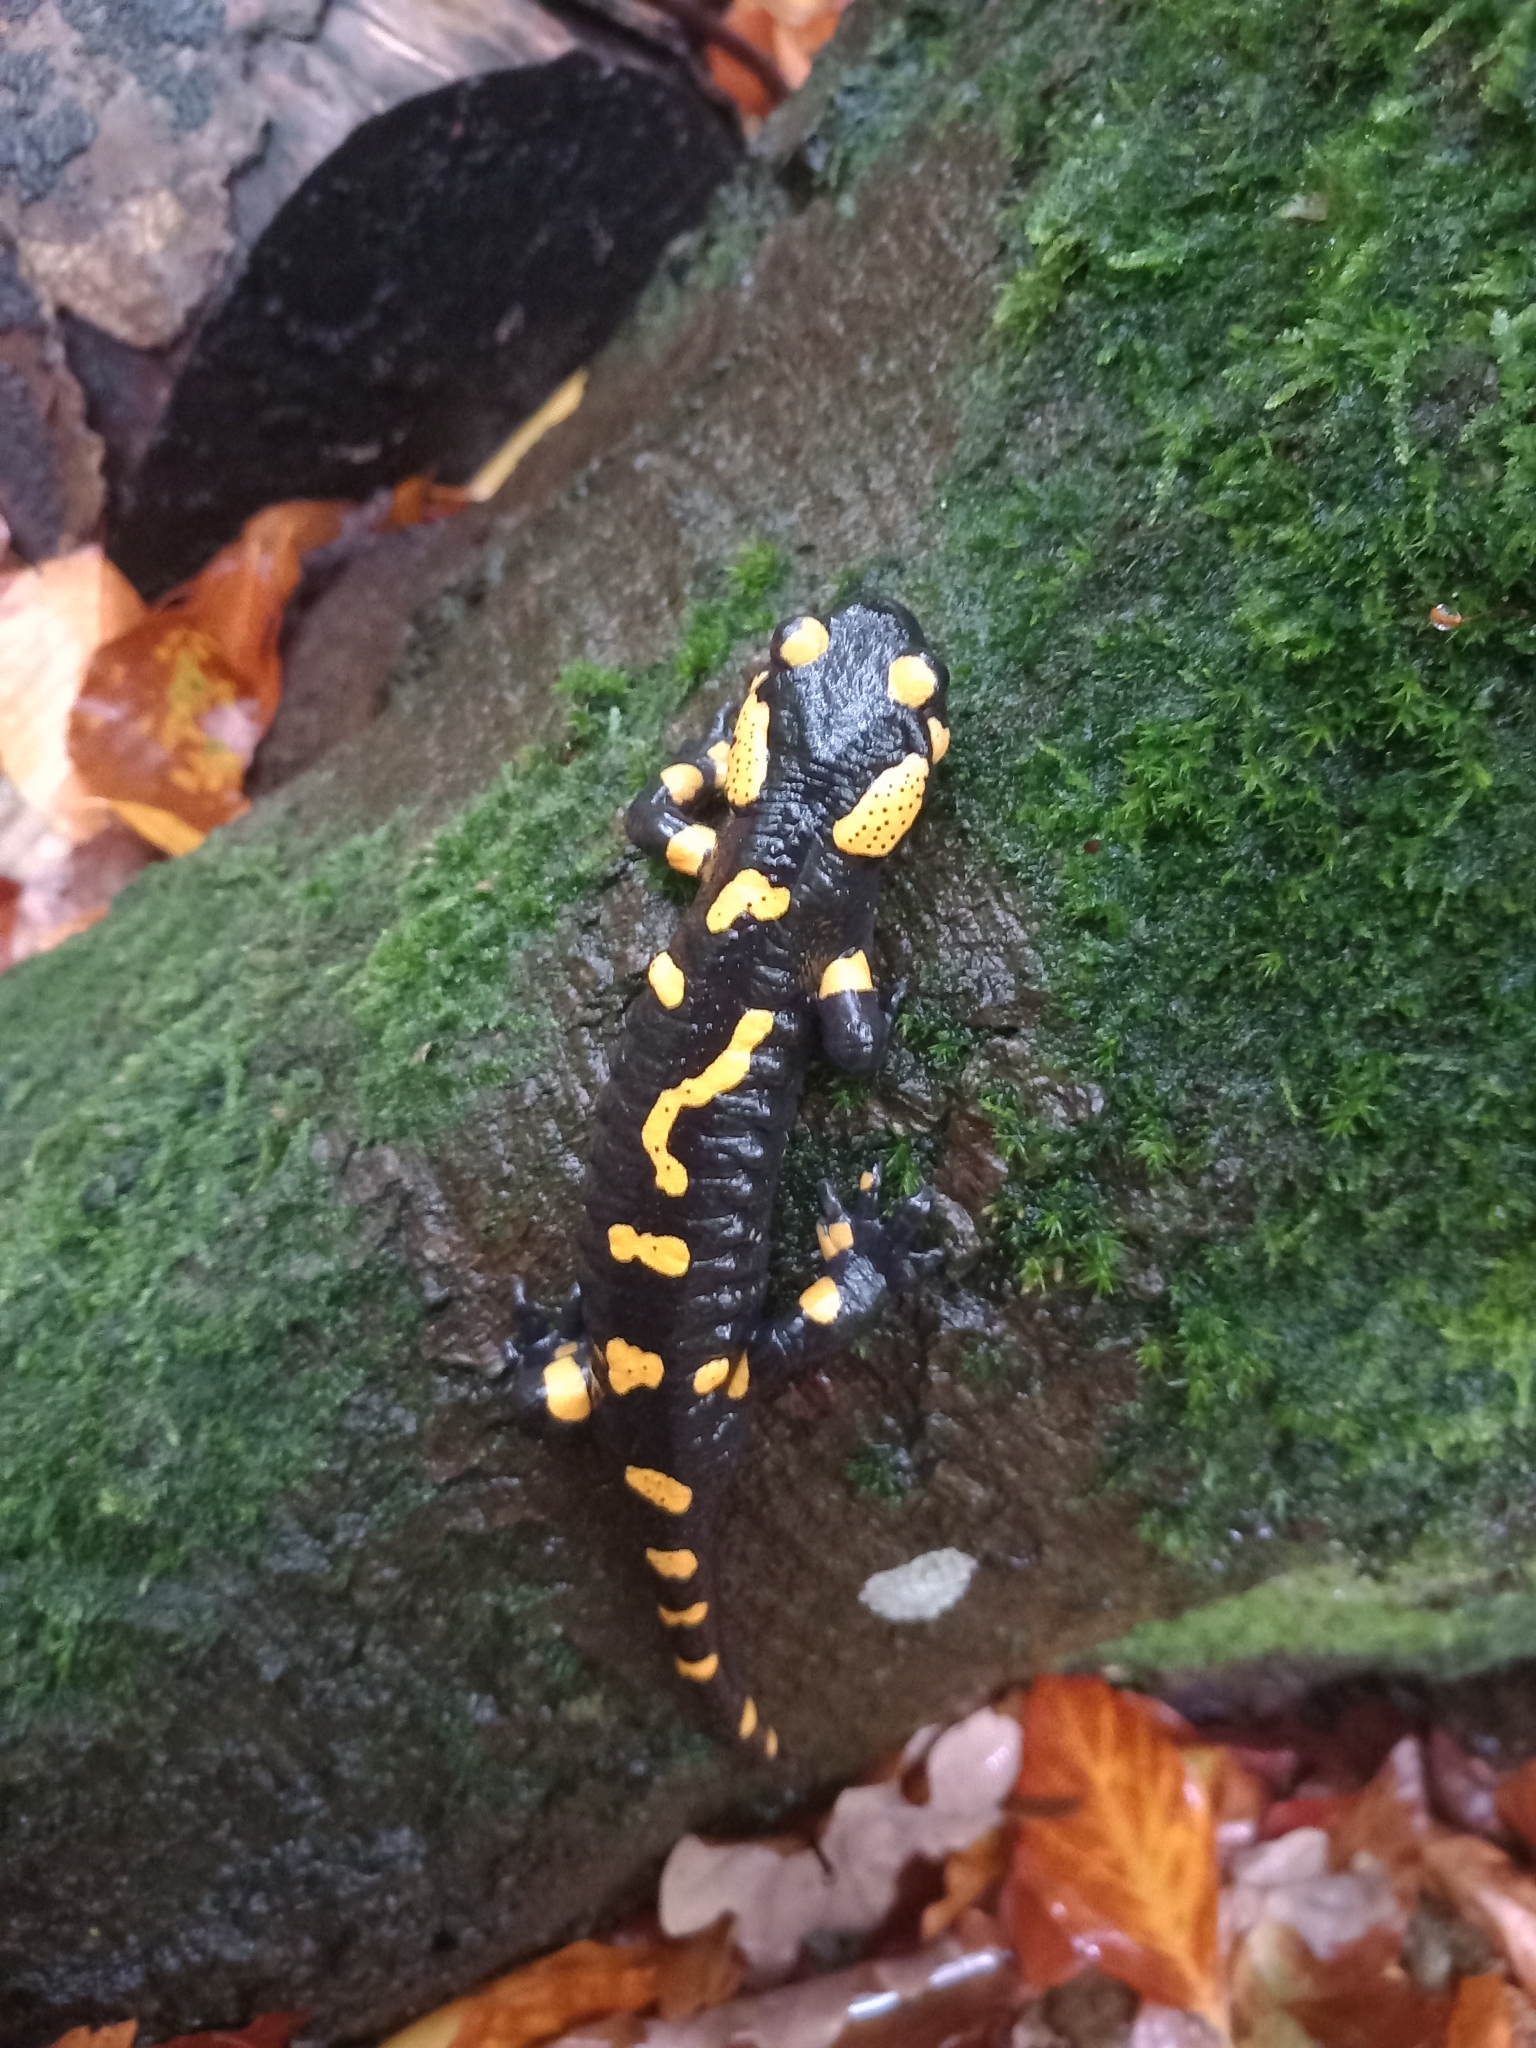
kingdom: Animalia
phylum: Chordata
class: Amphibia
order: Caudata
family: Salamandridae
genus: Salamandra
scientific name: Salamandra salamandra
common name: Fire salamander
